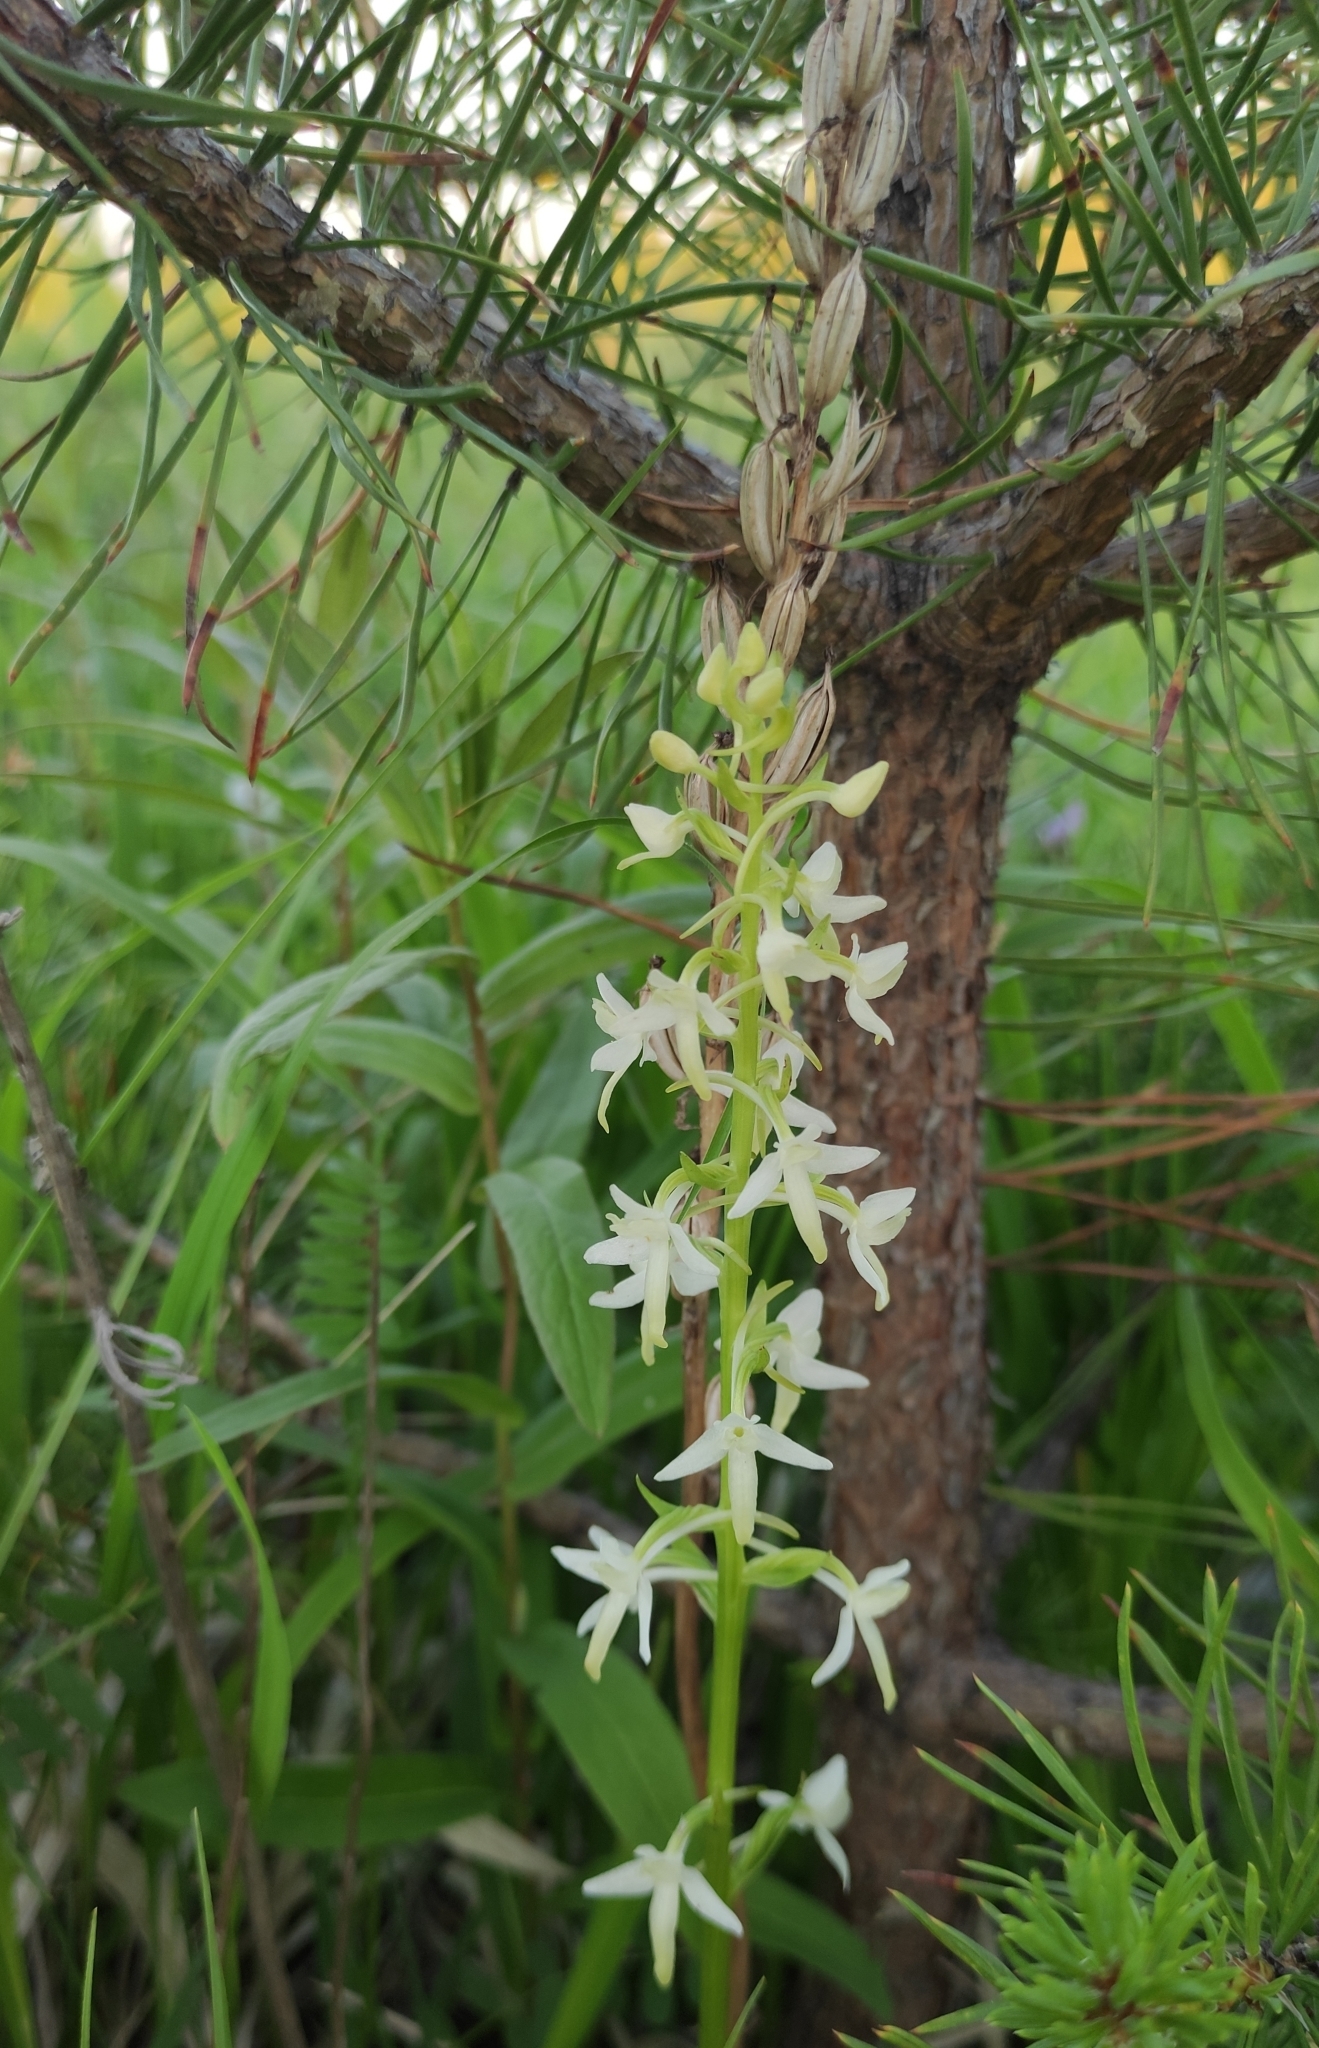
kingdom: Plantae
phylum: Tracheophyta
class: Liliopsida
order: Asparagales
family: Orchidaceae
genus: Platanthera
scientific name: Platanthera bifolia
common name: Lesser butterfly-orchid
